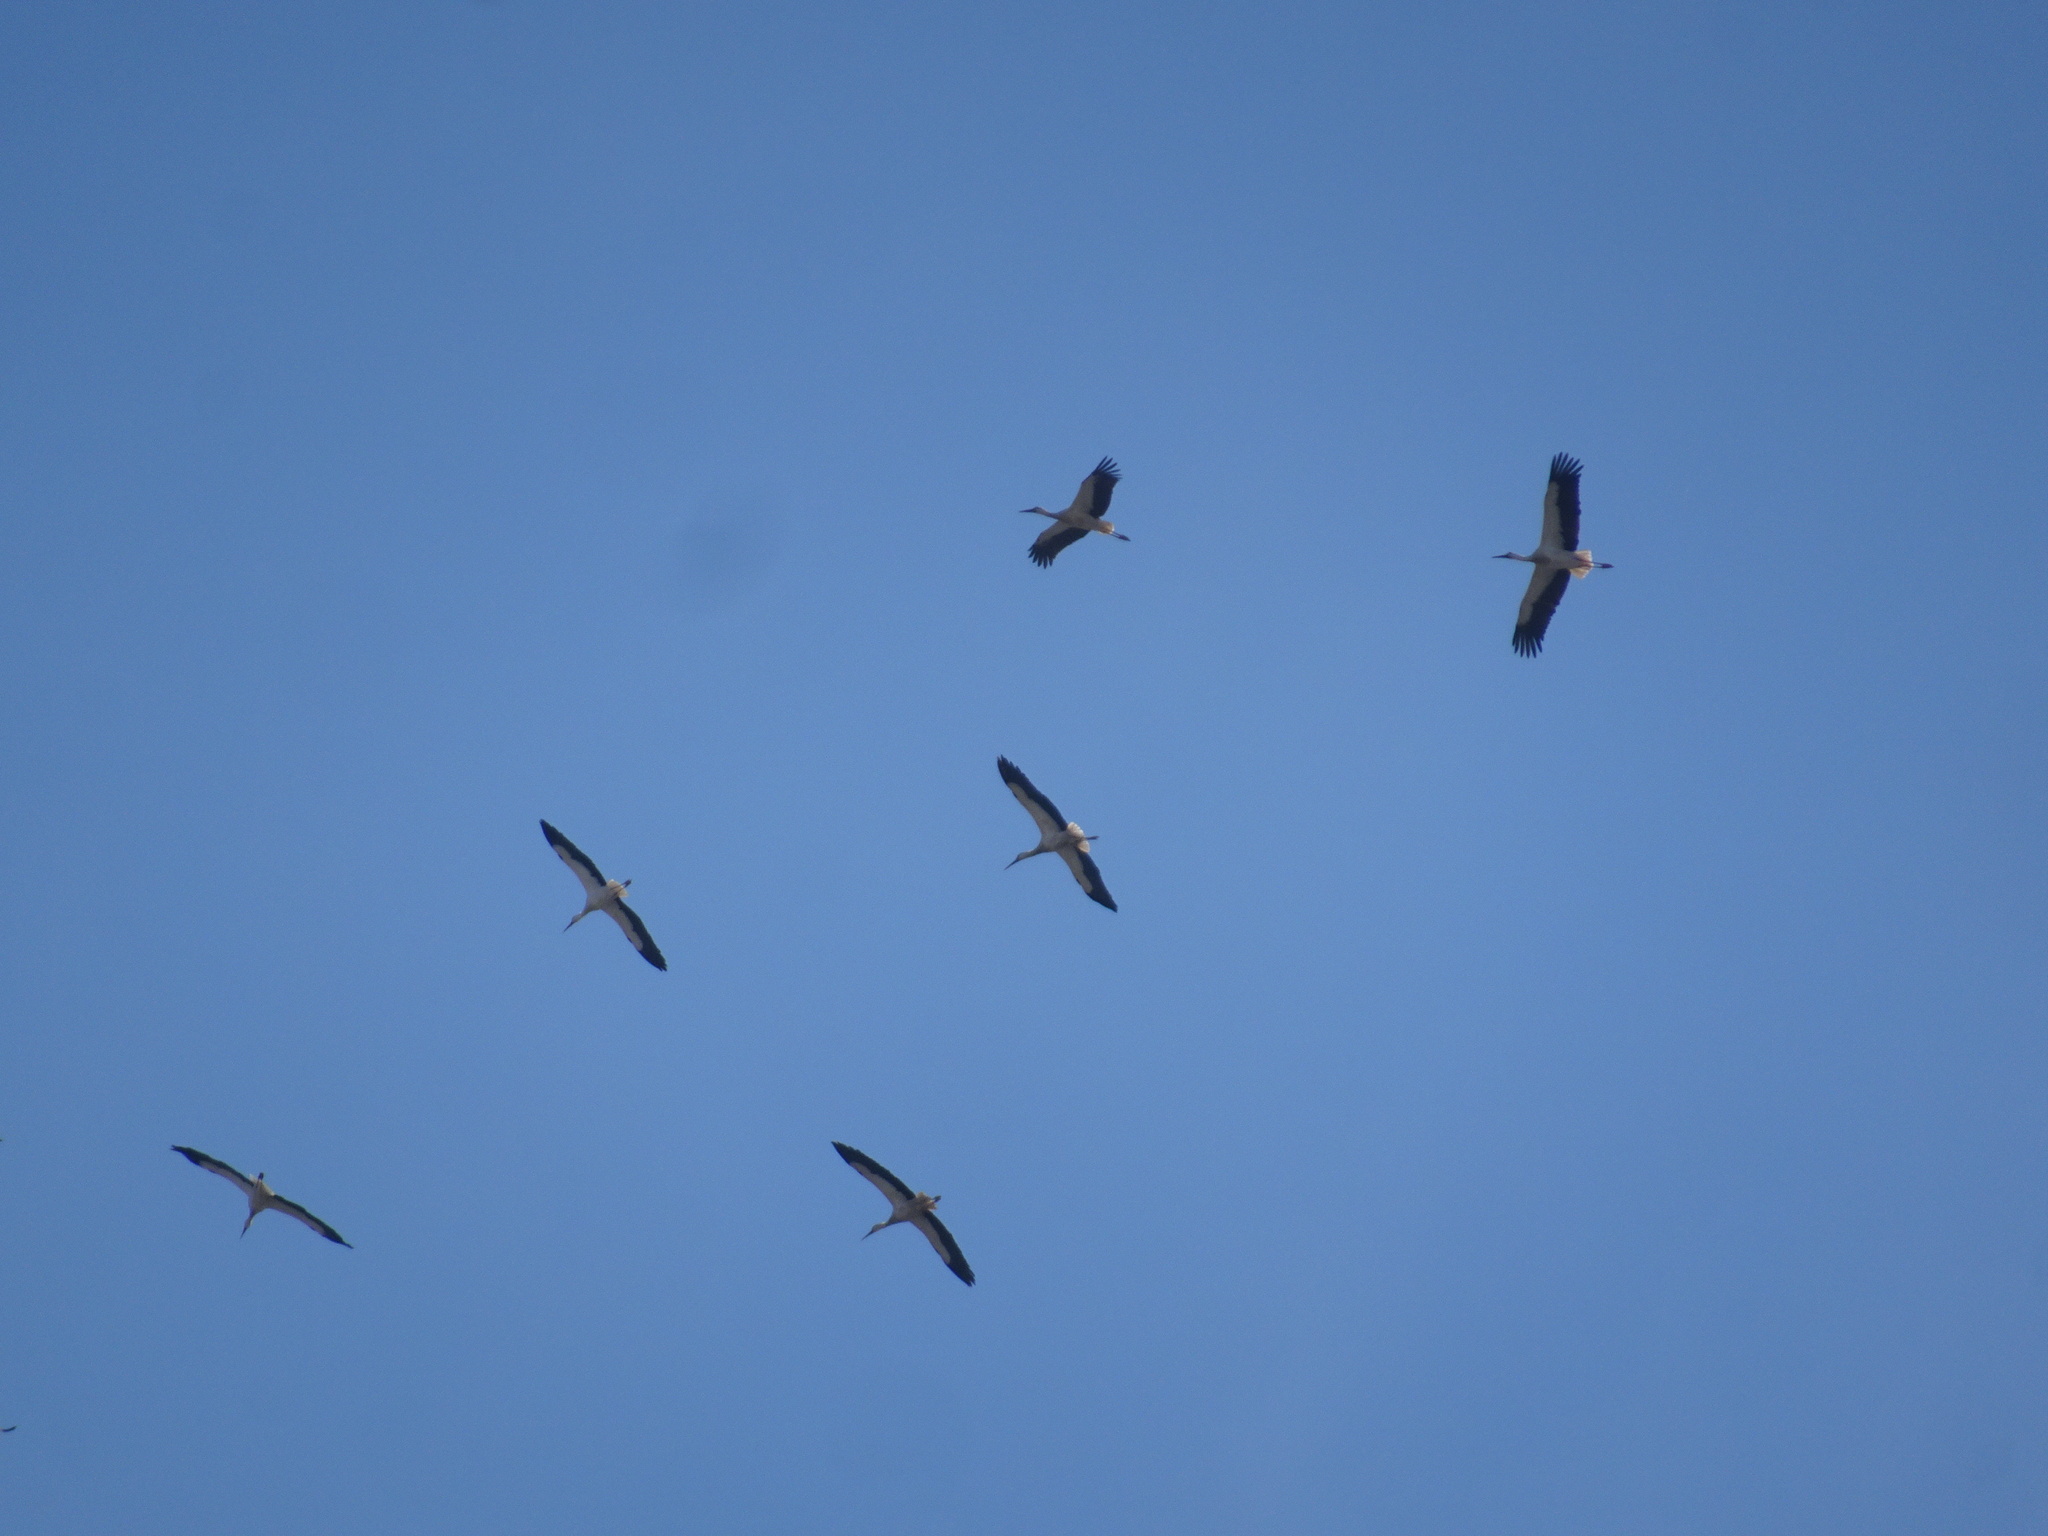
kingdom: Animalia
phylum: Chordata
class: Aves
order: Ciconiiformes
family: Ciconiidae
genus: Ciconia
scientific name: Ciconia ciconia
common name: White stork
